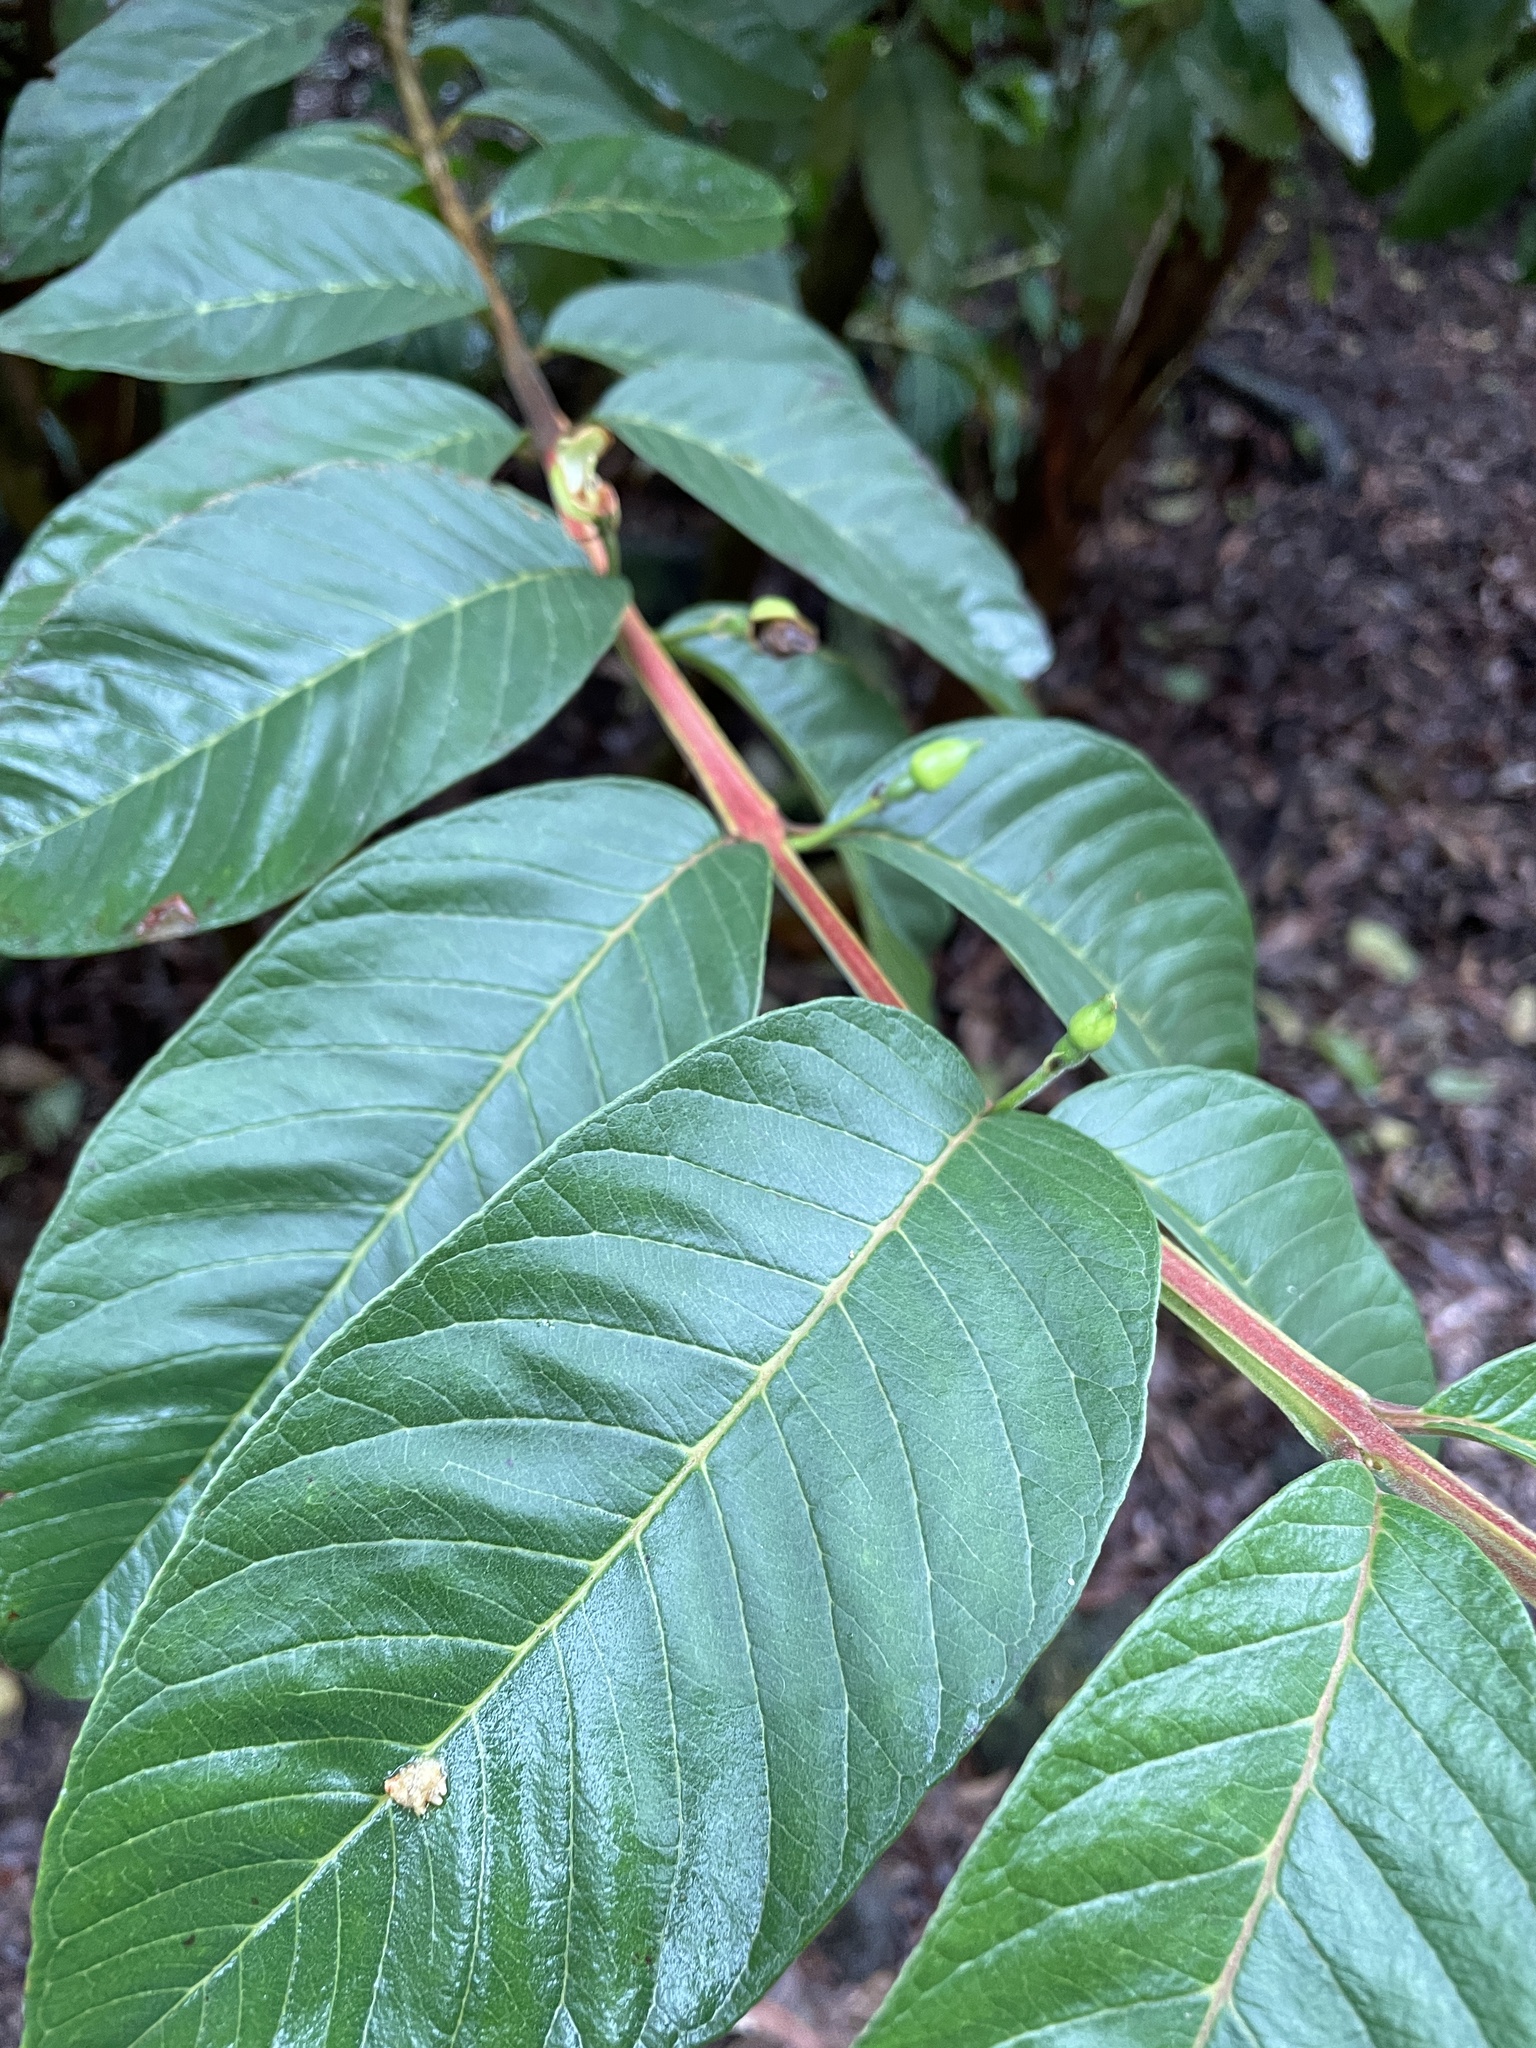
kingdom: Plantae
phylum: Tracheophyta
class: Magnoliopsida
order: Myrtales
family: Myrtaceae
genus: Psidium
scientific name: Psidium guajava
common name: Guava
